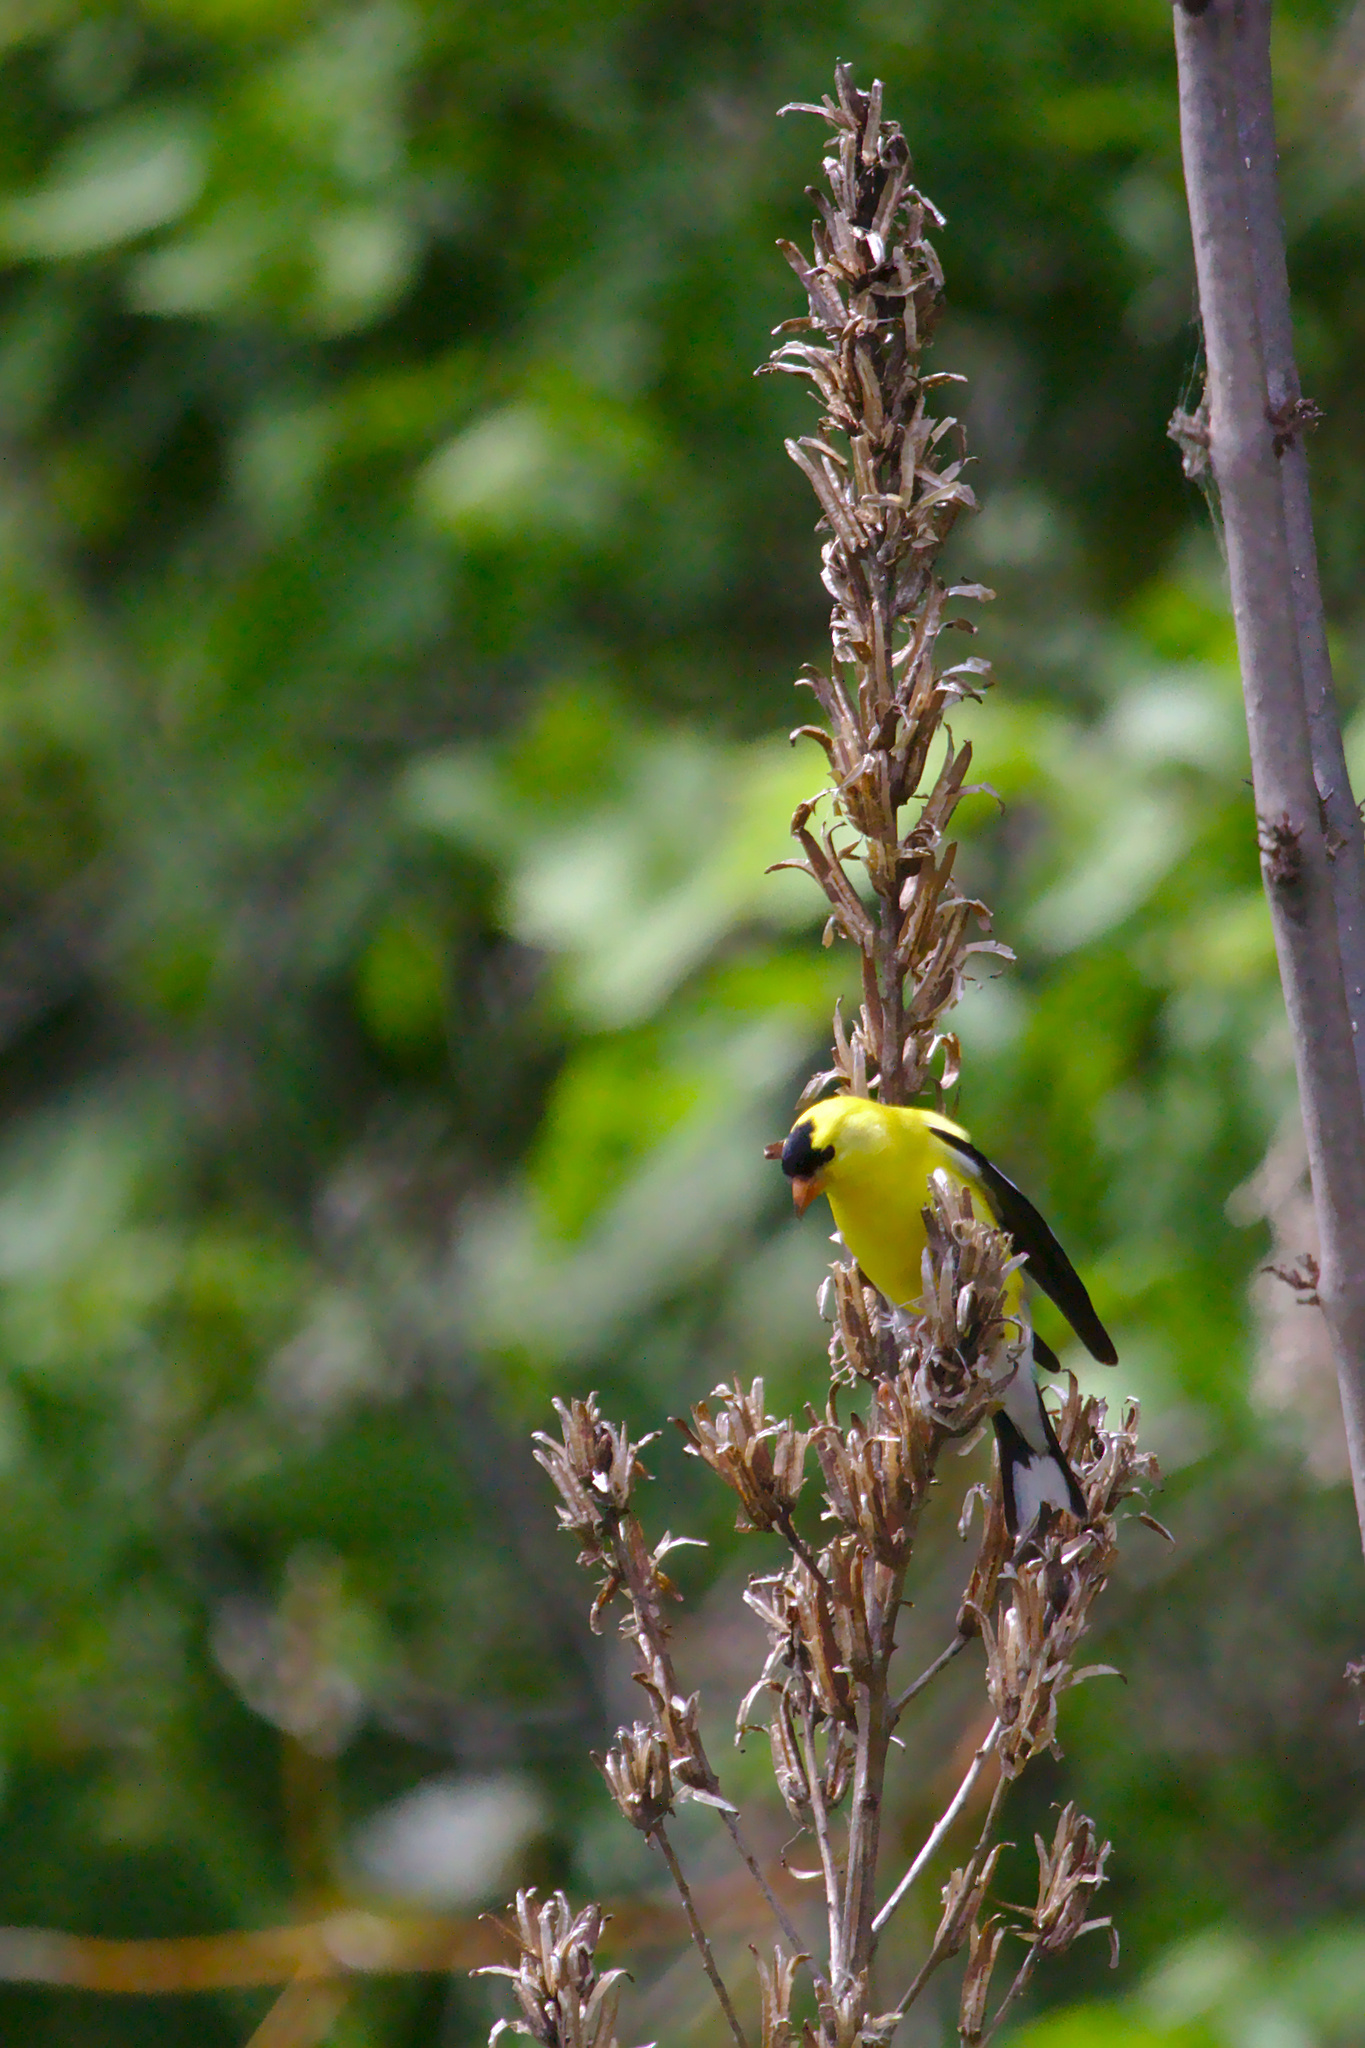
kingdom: Animalia
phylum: Chordata
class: Aves
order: Passeriformes
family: Fringillidae
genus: Spinus
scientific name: Spinus tristis
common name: American goldfinch
